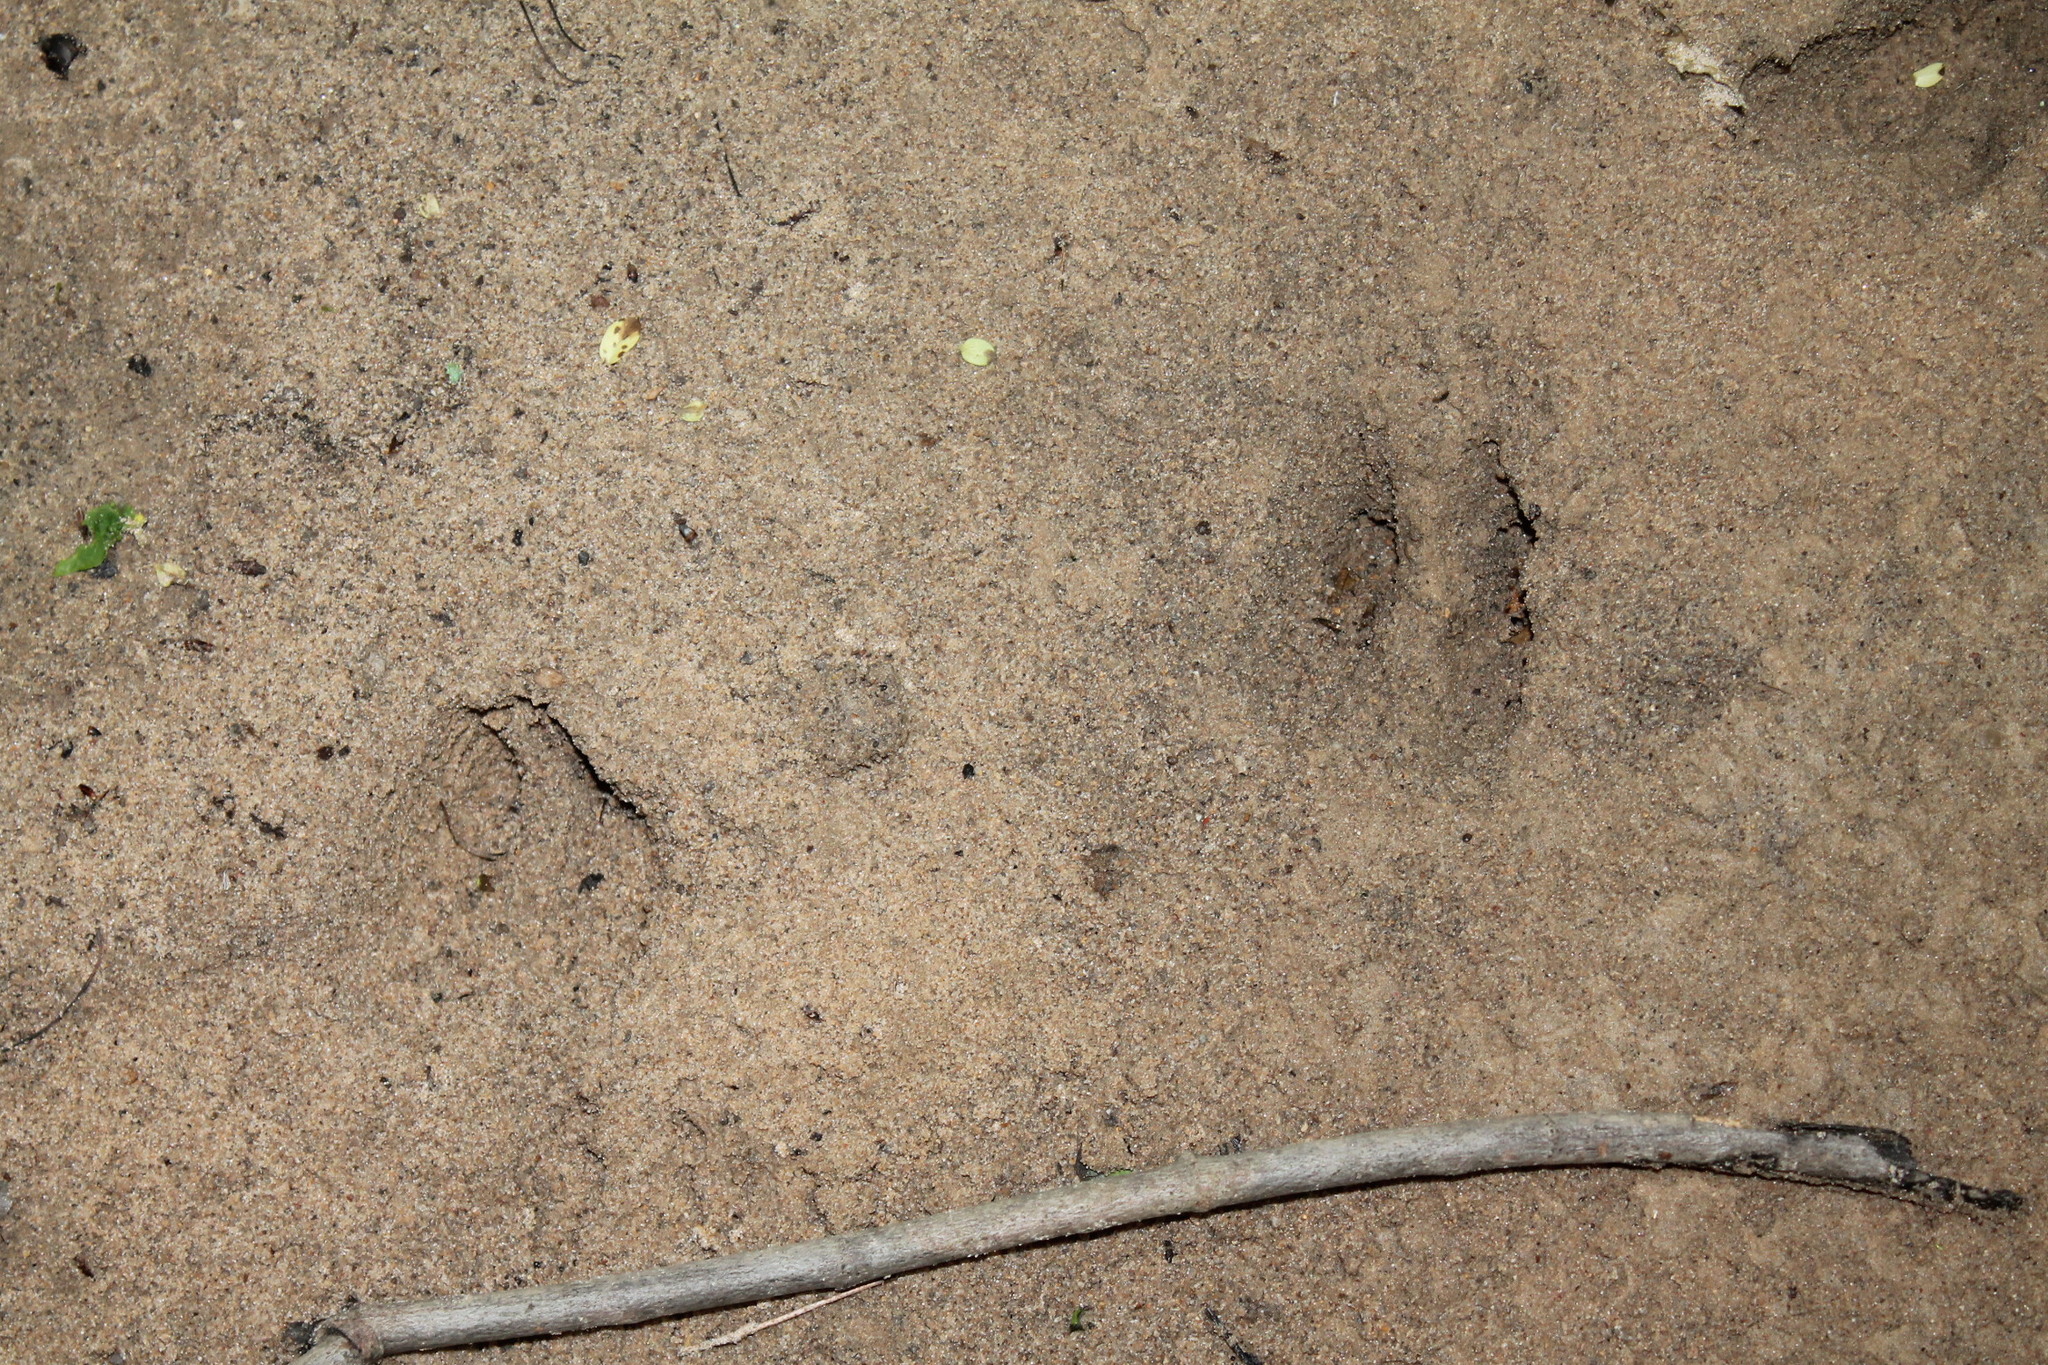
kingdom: Animalia
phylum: Chordata
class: Mammalia
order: Artiodactyla
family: Cervidae
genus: Odocoileus
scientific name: Odocoileus virginianus
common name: White-tailed deer
